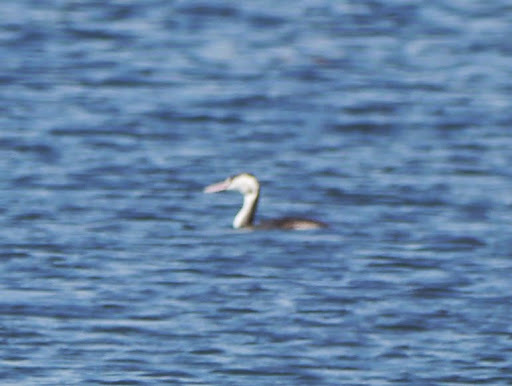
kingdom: Animalia
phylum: Chordata
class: Aves
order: Podicipediformes
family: Podicipedidae
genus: Podiceps
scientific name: Podiceps cristatus
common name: Great crested grebe
